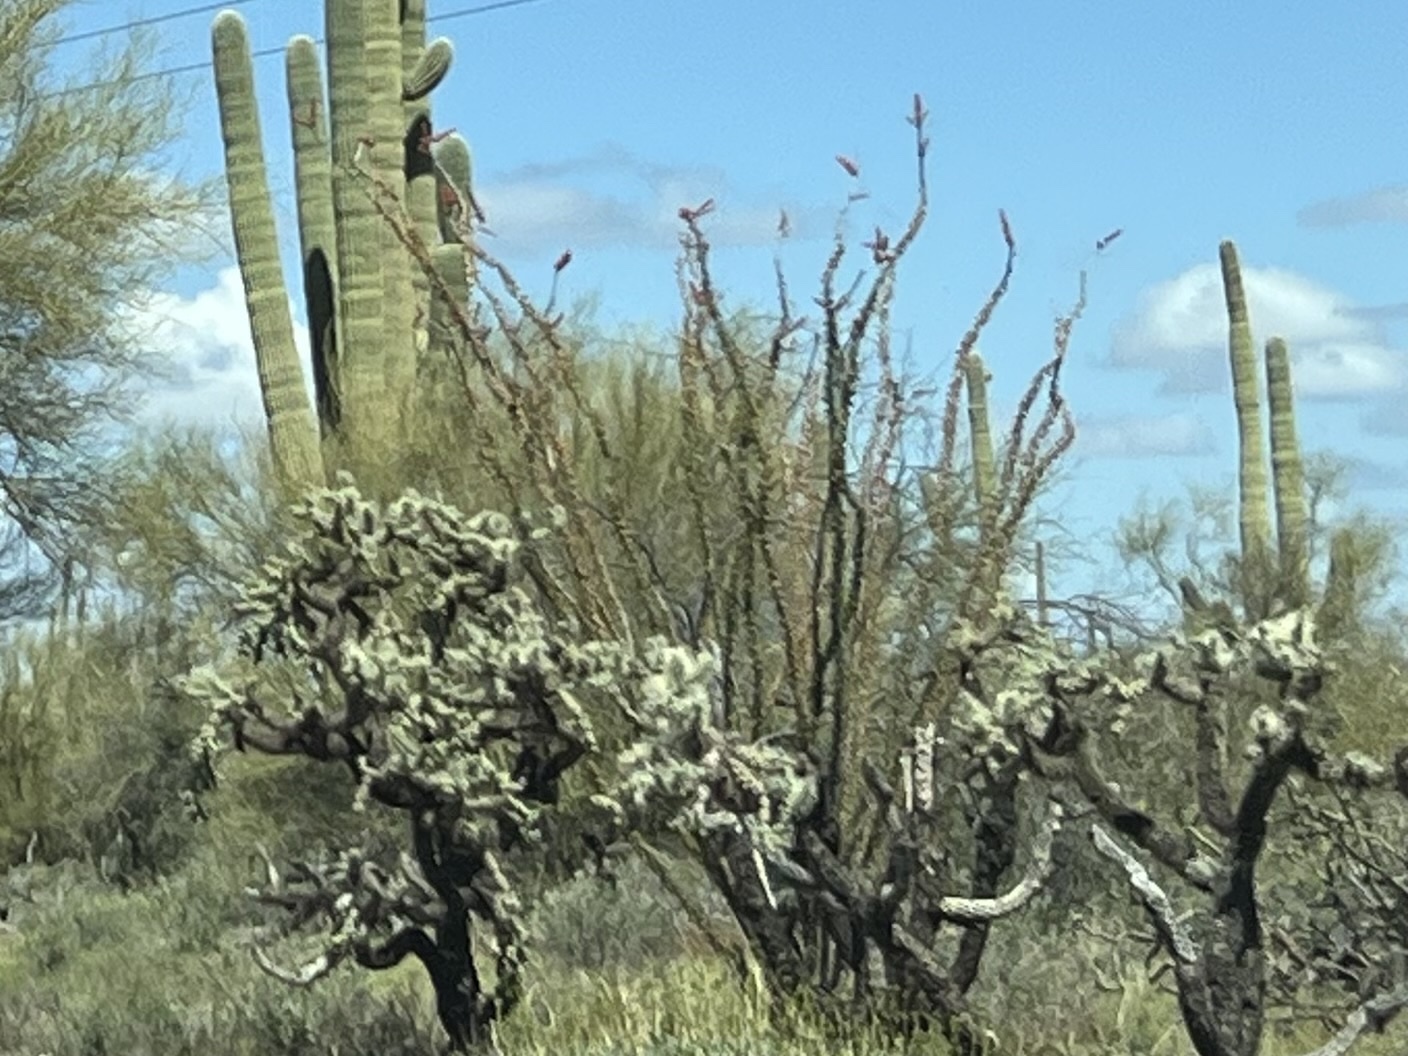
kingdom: Plantae
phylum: Tracheophyta
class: Magnoliopsida
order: Ericales
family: Fouquieriaceae
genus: Fouquieria
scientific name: Fouquieria splendens
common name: Vine-cactus
